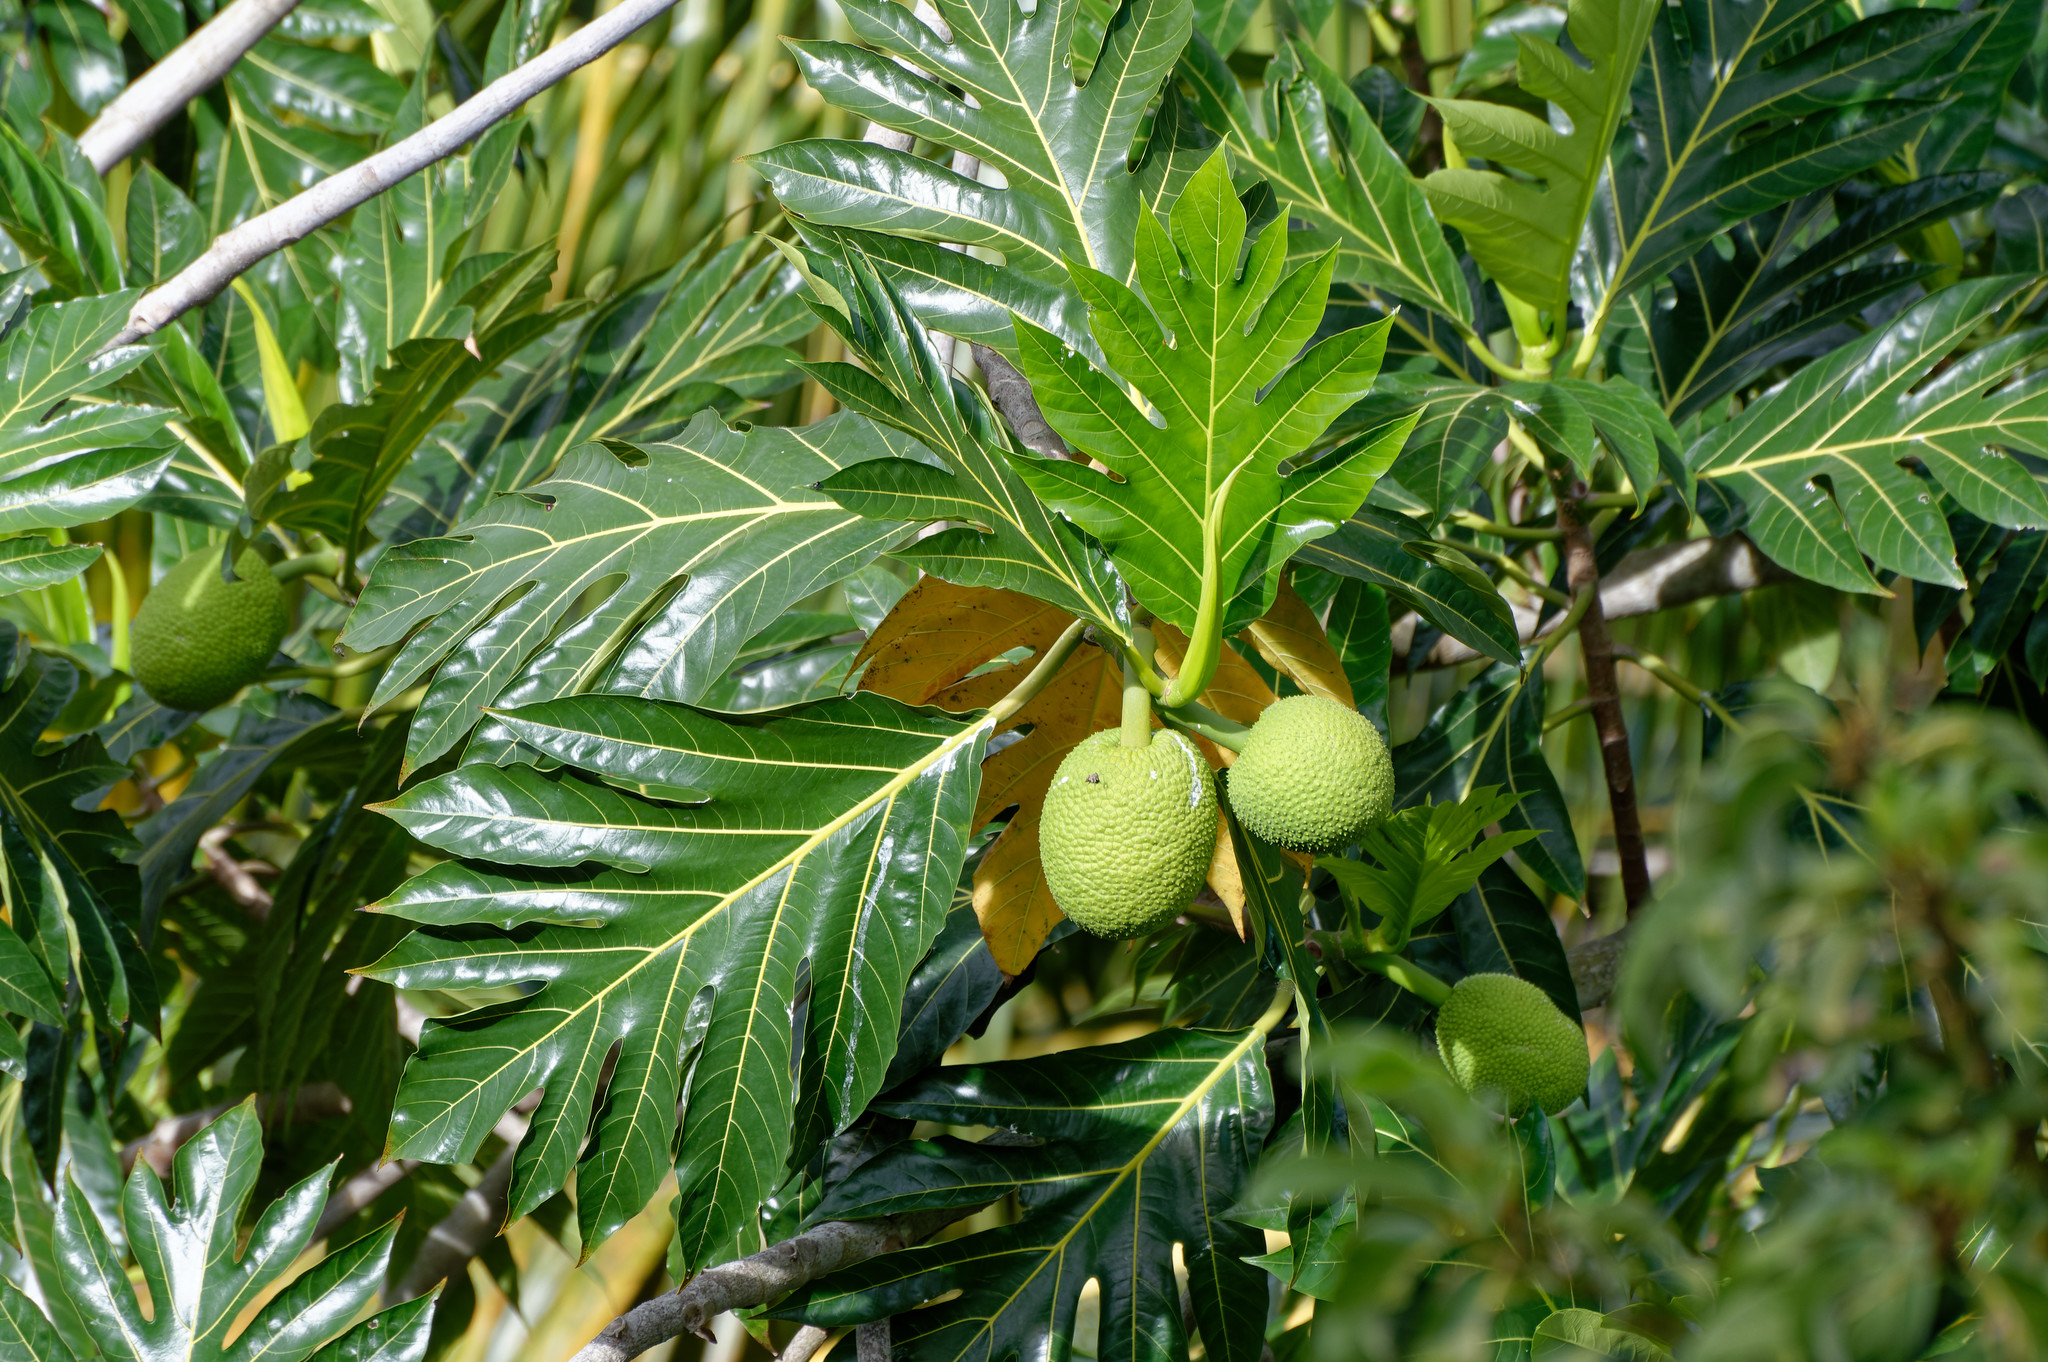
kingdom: Plantae
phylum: Tracheophyta
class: Magnoliopsida
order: Rosales
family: Moraceae
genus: Artocarpus
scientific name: Artocarpus altilis
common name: Breadfruit
